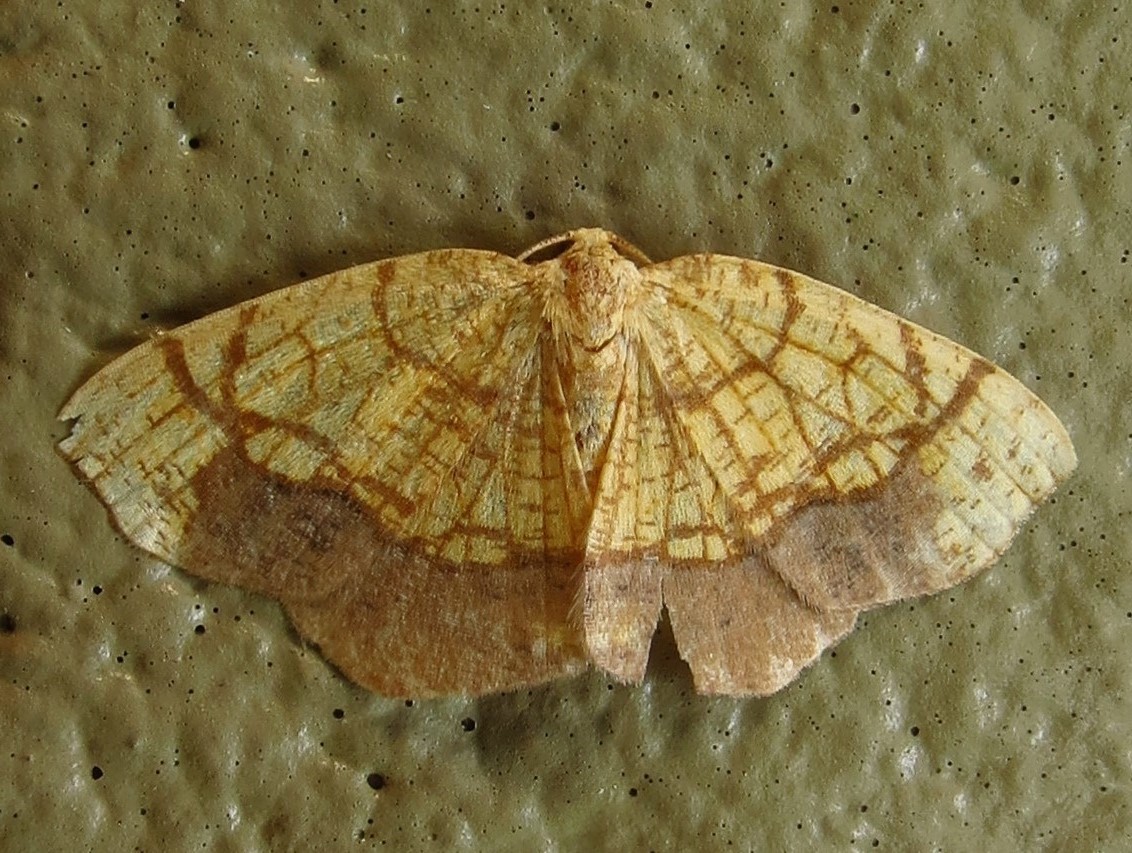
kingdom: Animalia
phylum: Arthropoda
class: Insecta
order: Lepidoptera
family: Geometridae
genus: Nematocampa
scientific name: Nematocampa resistaria
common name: Horned spanworm moth
